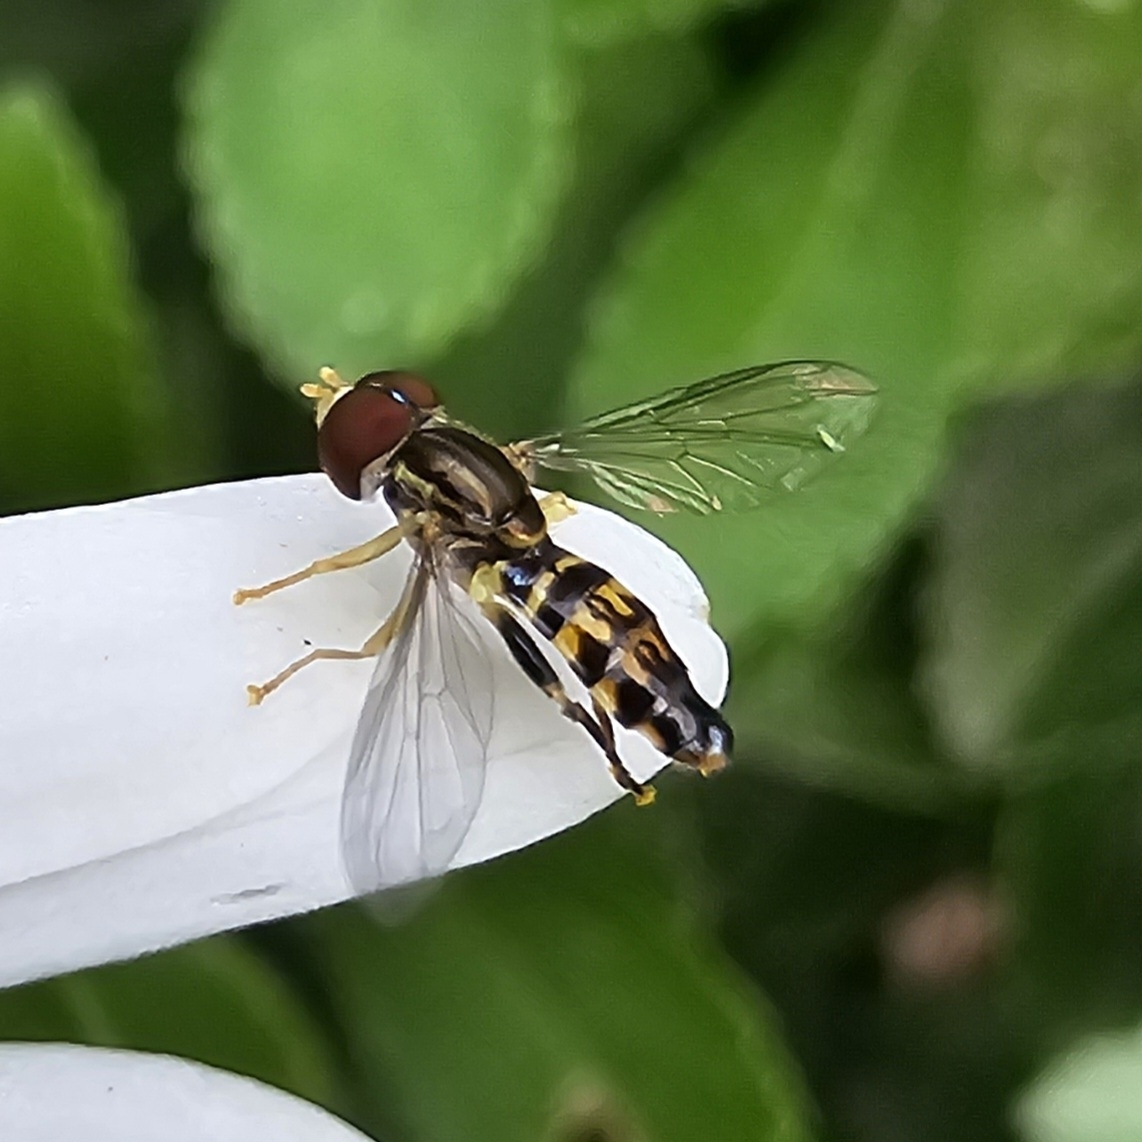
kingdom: Animalia
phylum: Arthropoda
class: Insecta
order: Diptera
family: Syrphidae
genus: Toxomerus
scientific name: Toxomerus geminatus
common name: Eastern calligrapher
